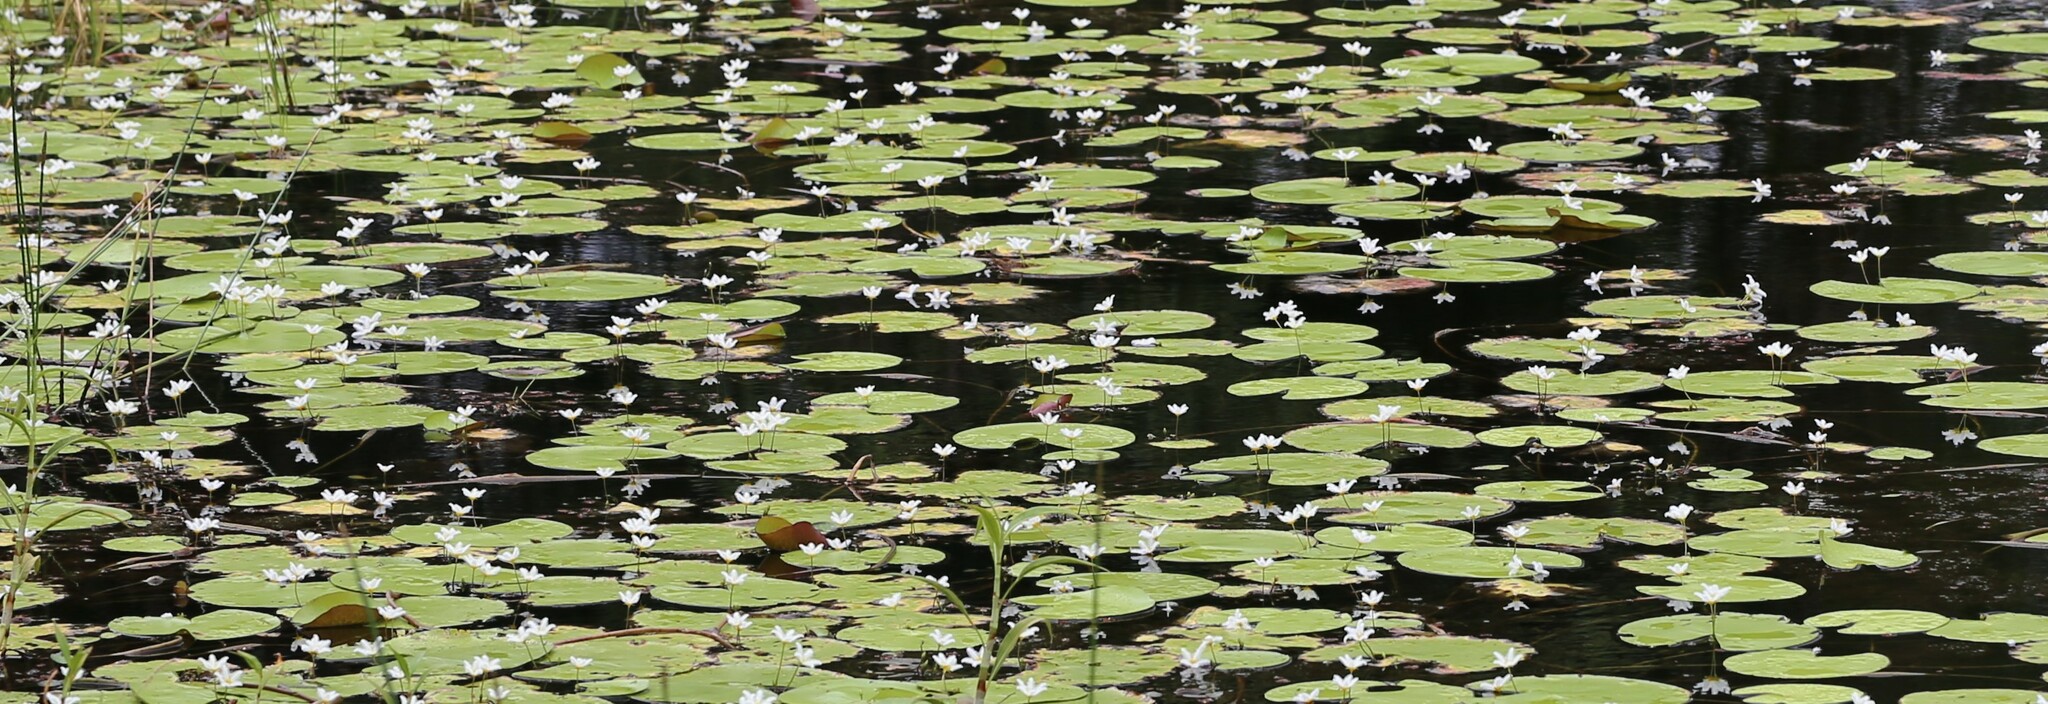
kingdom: Plantae
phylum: Tracheophyta
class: Magnoliopsida
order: Asterales
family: Menyanthaceae
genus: Nymphoides
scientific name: Nymphoides indica
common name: Water-snowflake
